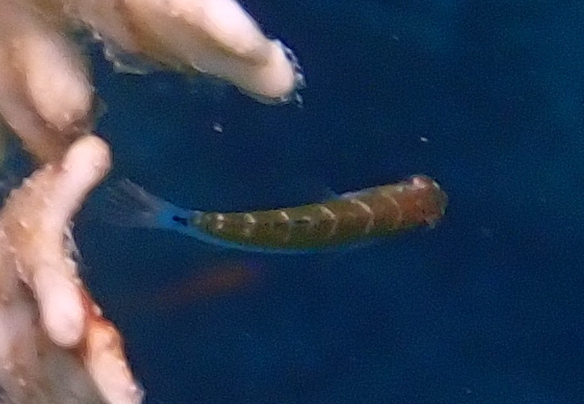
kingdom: Animalia
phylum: Chordata
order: Perciformes
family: Labridae
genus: Thalassoma
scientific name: Thalassoma lunare
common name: Blue wrasse
